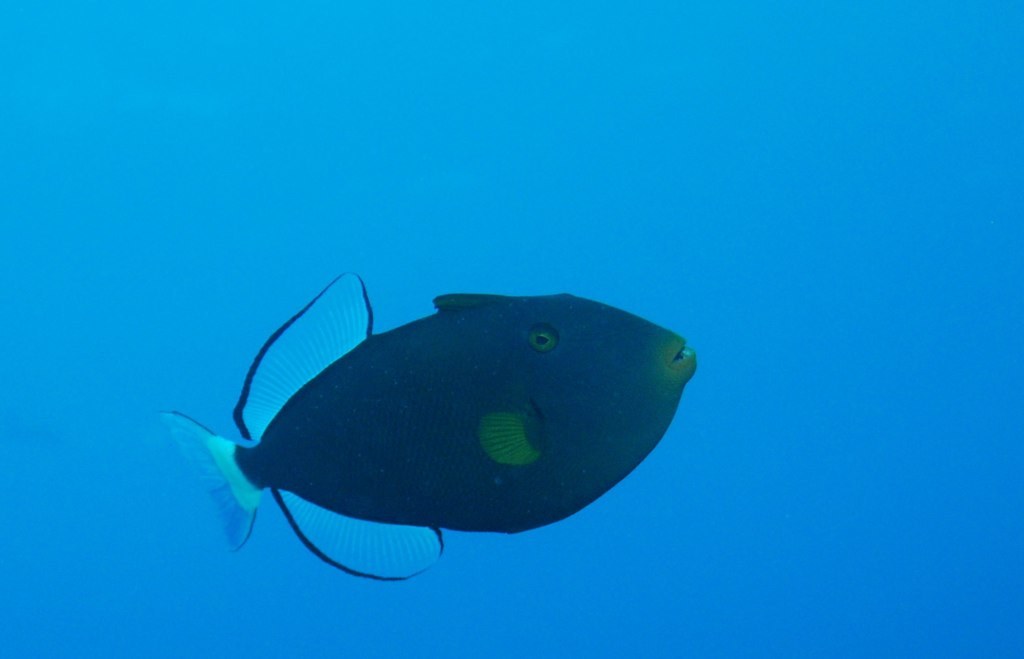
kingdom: Animalia
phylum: Chordata
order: Tetraodontiformes
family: Balistidae
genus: Melichthys
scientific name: Melichthys vidua
